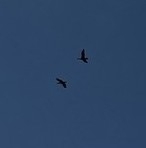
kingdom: Animalia
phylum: Chordata
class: Aves
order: Suliformes
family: Phalacrocoracidae
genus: Phalacrocorax
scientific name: Phalacrocorax auritus
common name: Double-crested cormorant
